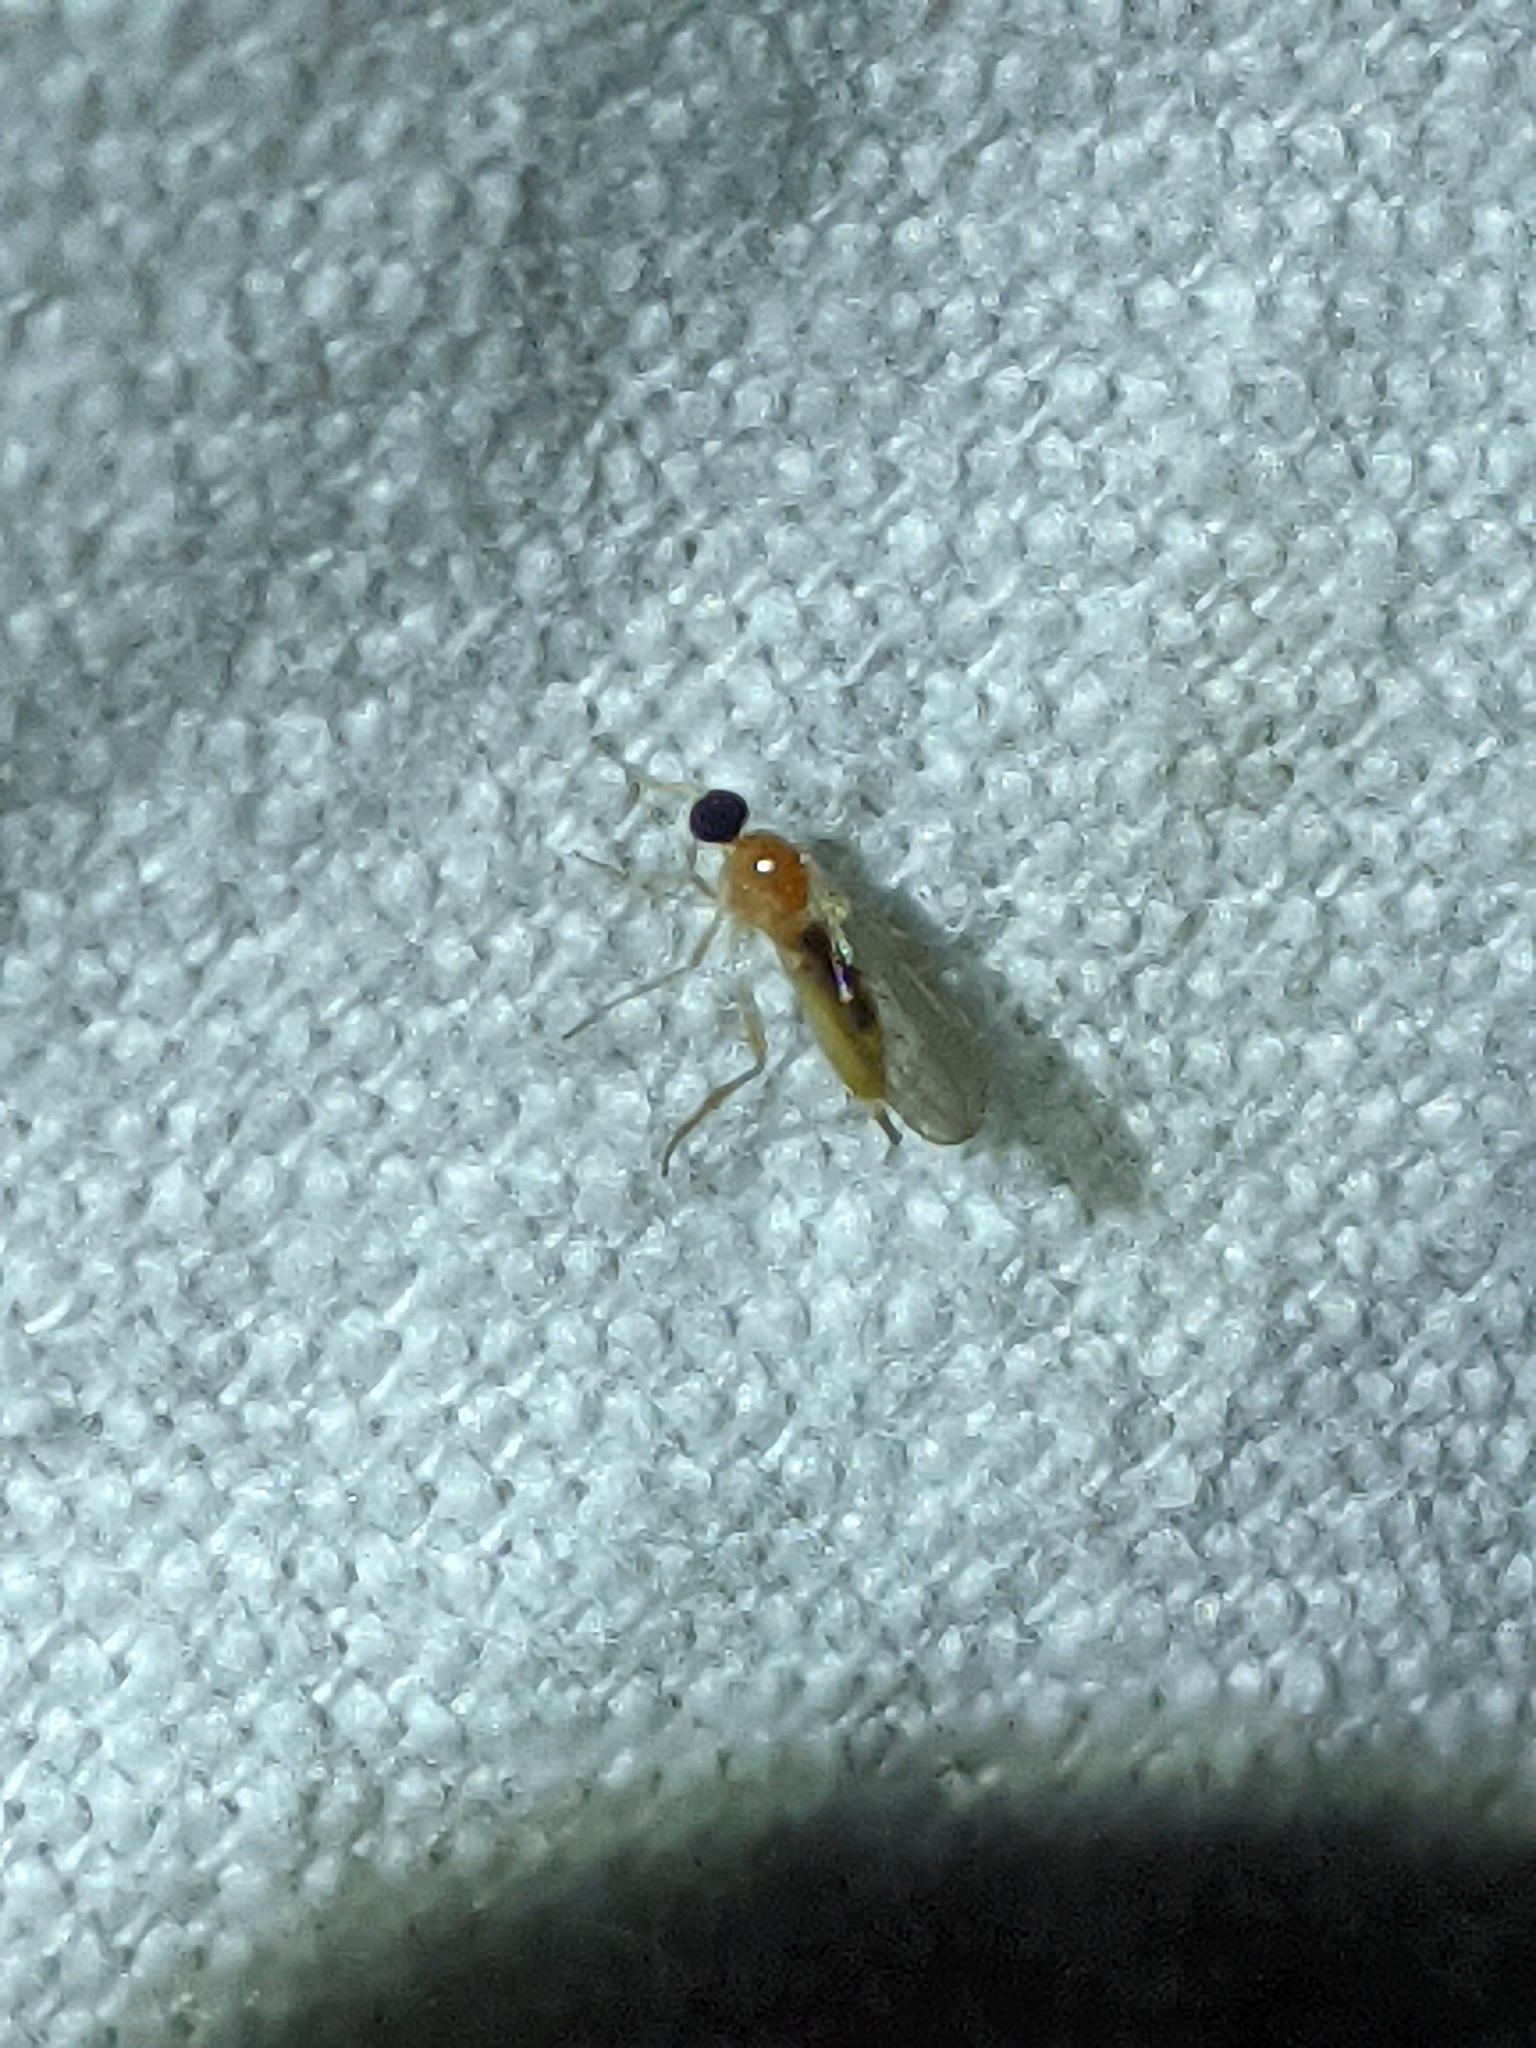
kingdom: Animalia
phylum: Arthropoda
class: Insecta
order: Diptera
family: Hybotidae
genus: Leptopeza
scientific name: Leptopeza compta
